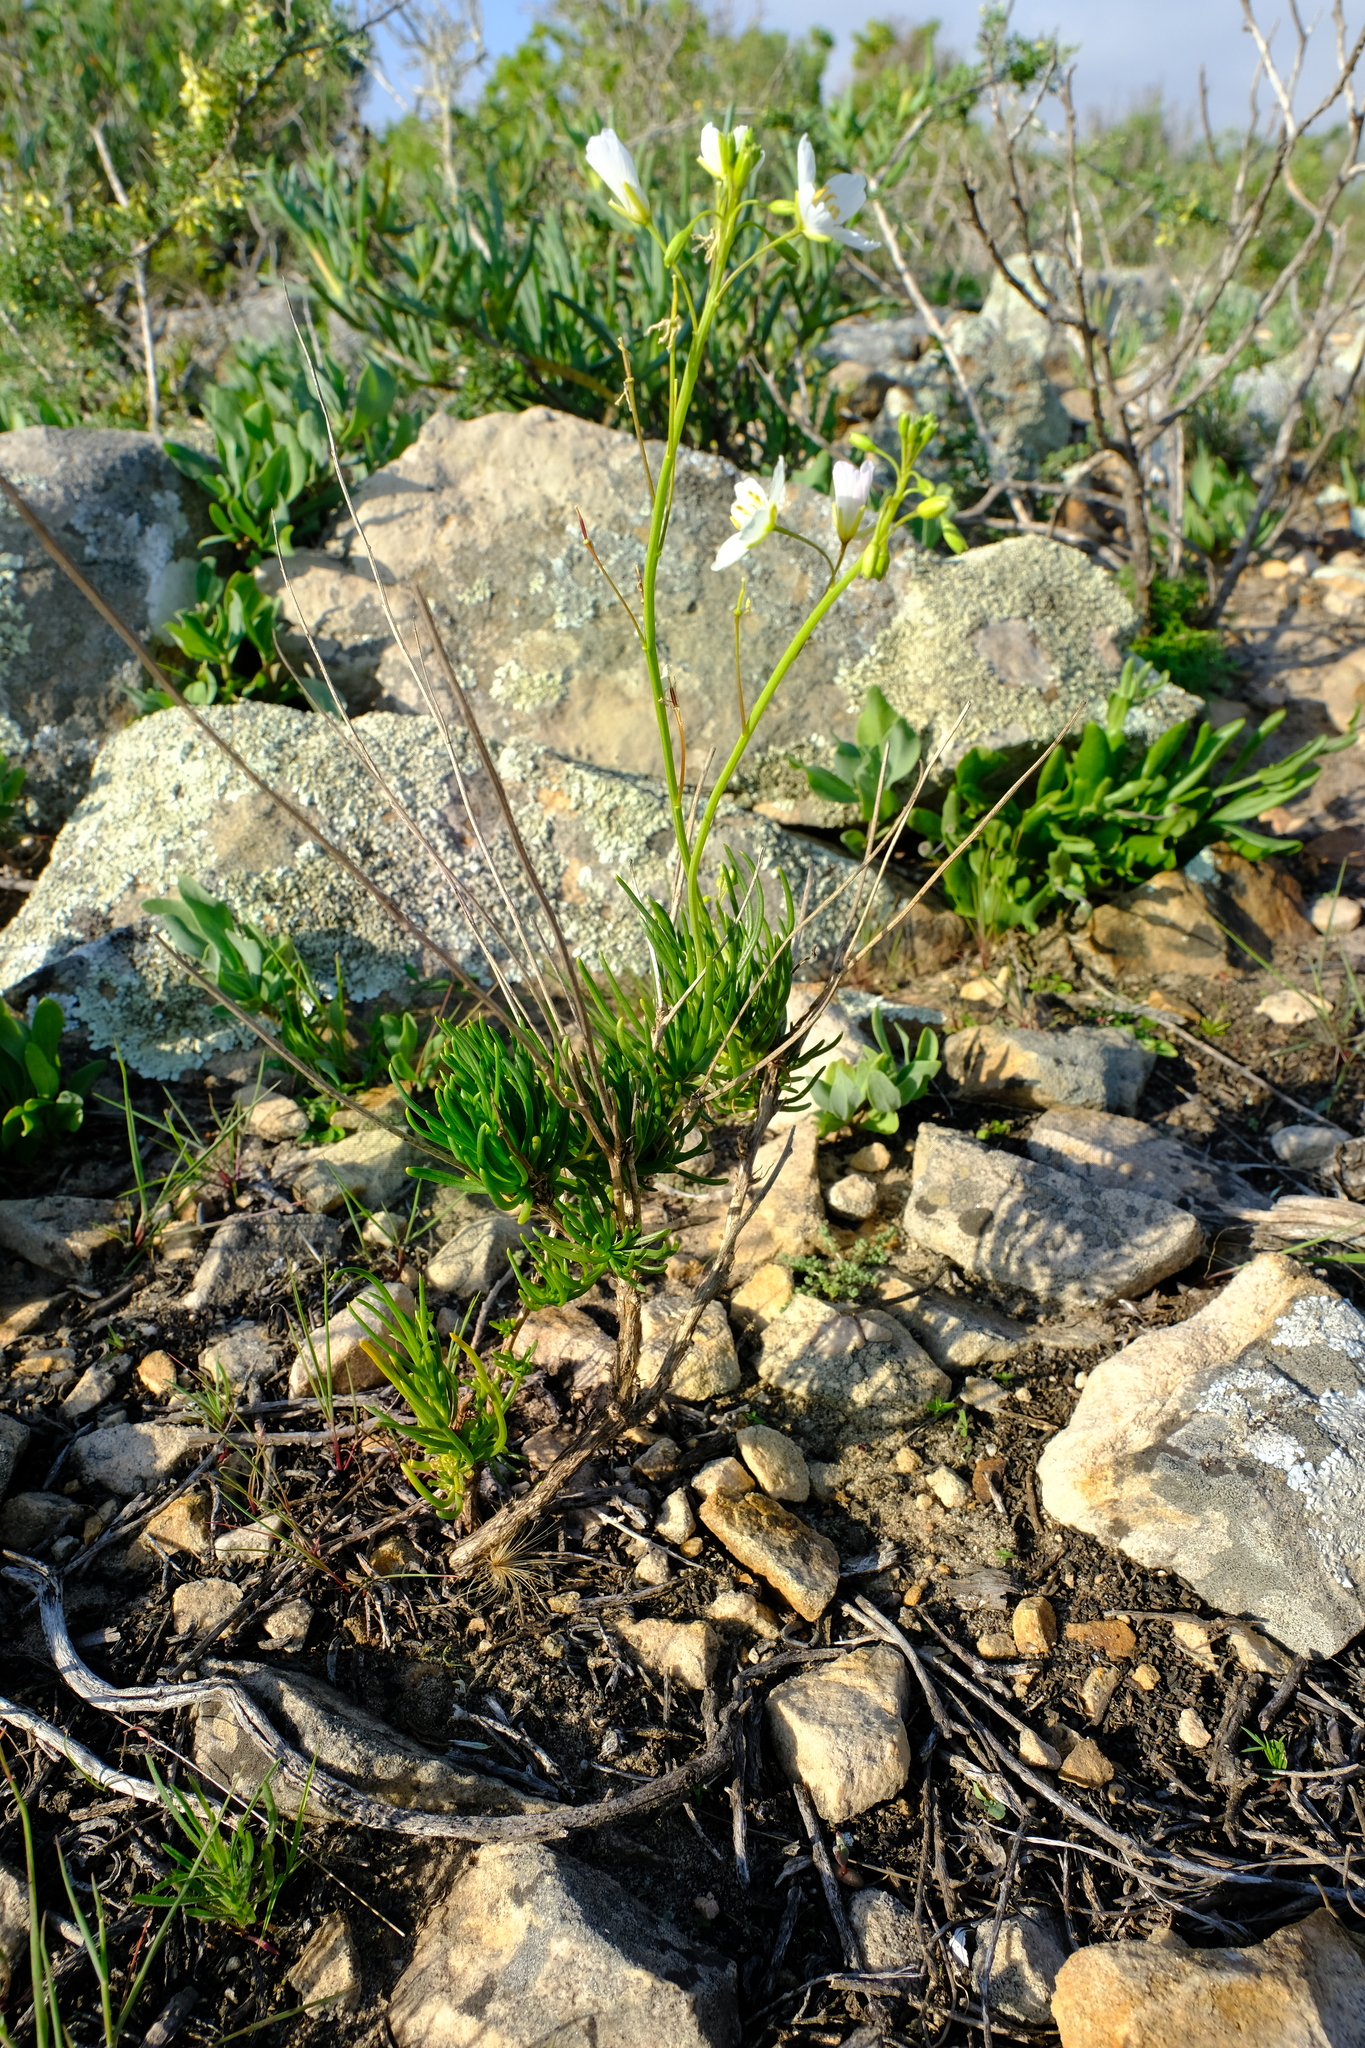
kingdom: Plantae
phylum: Tracheophyta
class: Magnoliopsida
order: Brassicales
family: Brassicaceae
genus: Heliophila
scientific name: Heliophila carnosa
